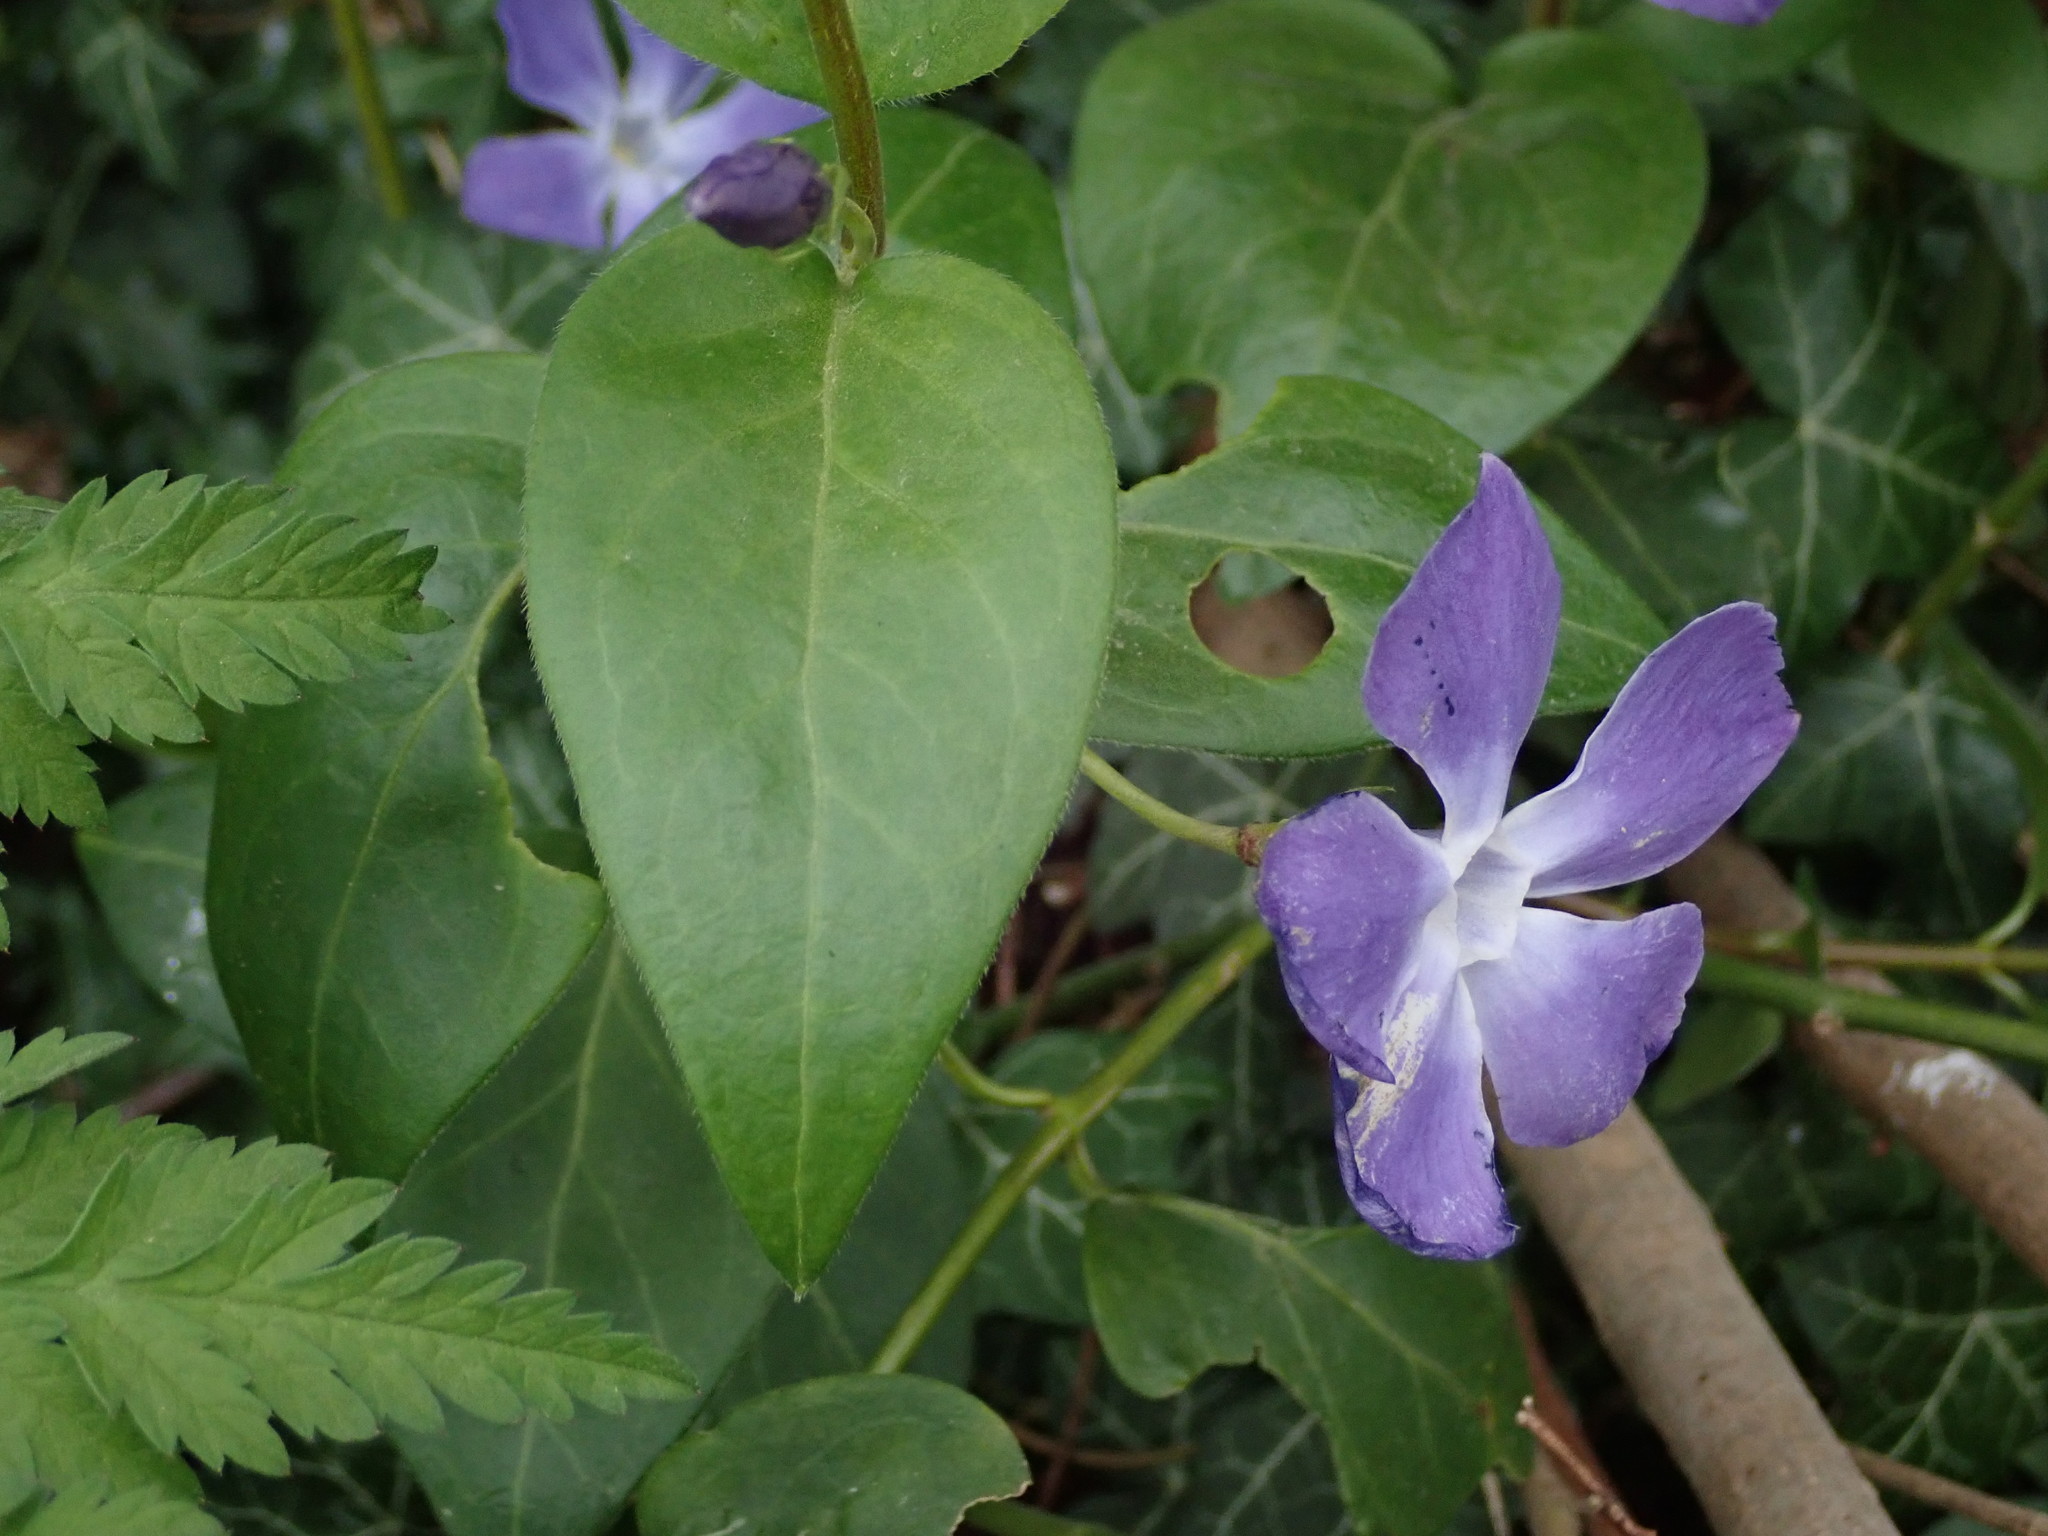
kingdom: Plantae
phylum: Tracheophyta
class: Magnoliopsida
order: Gentianales
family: Apocynaceae
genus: Vinca
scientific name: Vinca major
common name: Greater periwinkle
